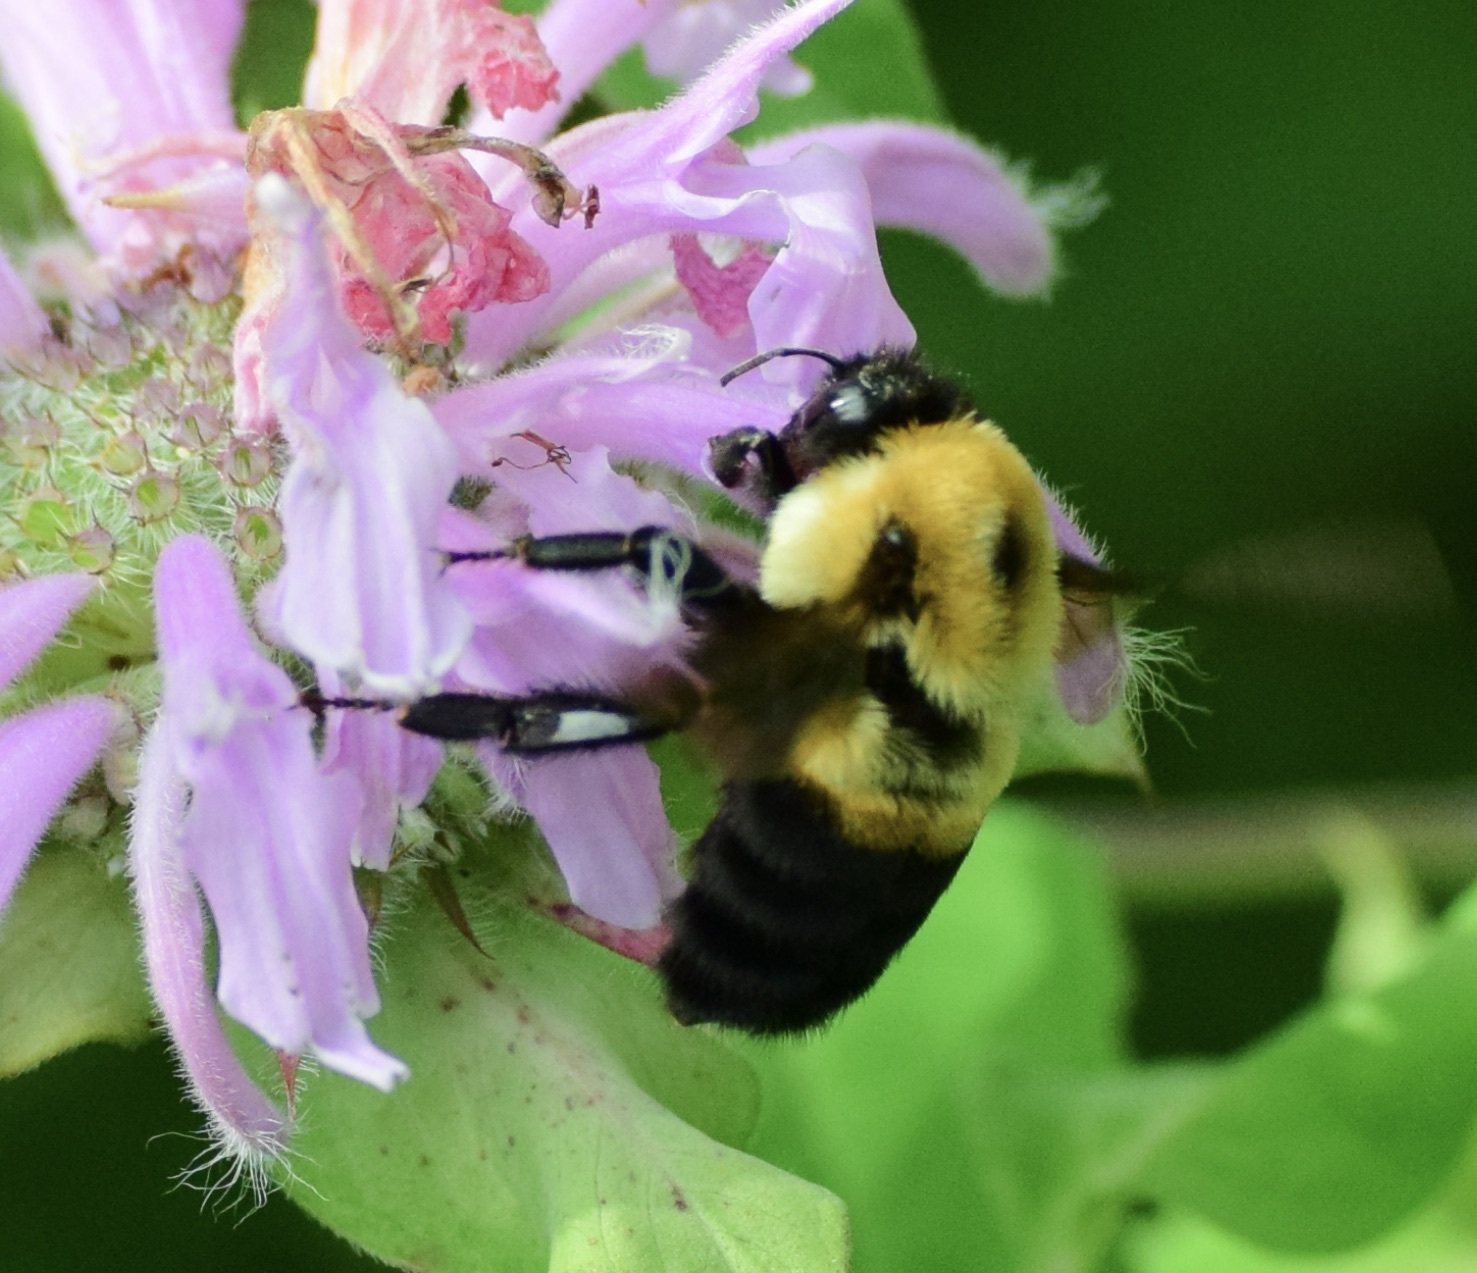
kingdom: Animalia
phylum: Arthropoda
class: Insecta
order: Hymenoptera
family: Apidae
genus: Bombus
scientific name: Bombus griseocollis
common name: Brown-belted bumble bee
